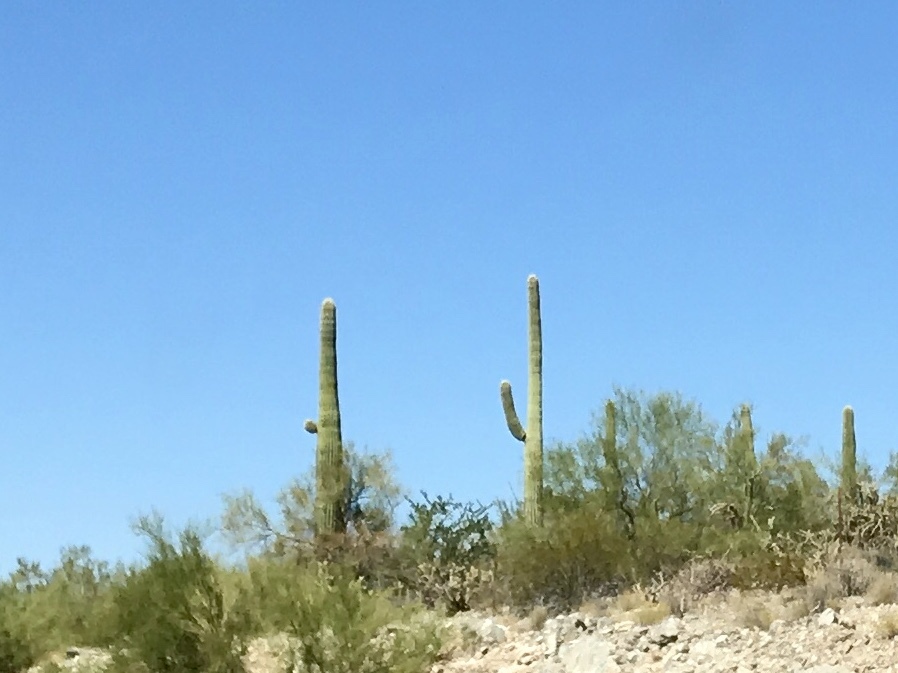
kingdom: Plantae
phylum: Tracheophyta
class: Magnoliopsida
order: Caryophyllales
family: Cactaceae
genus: Carnegiea
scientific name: Carnegiea gigantea
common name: Saguaro
